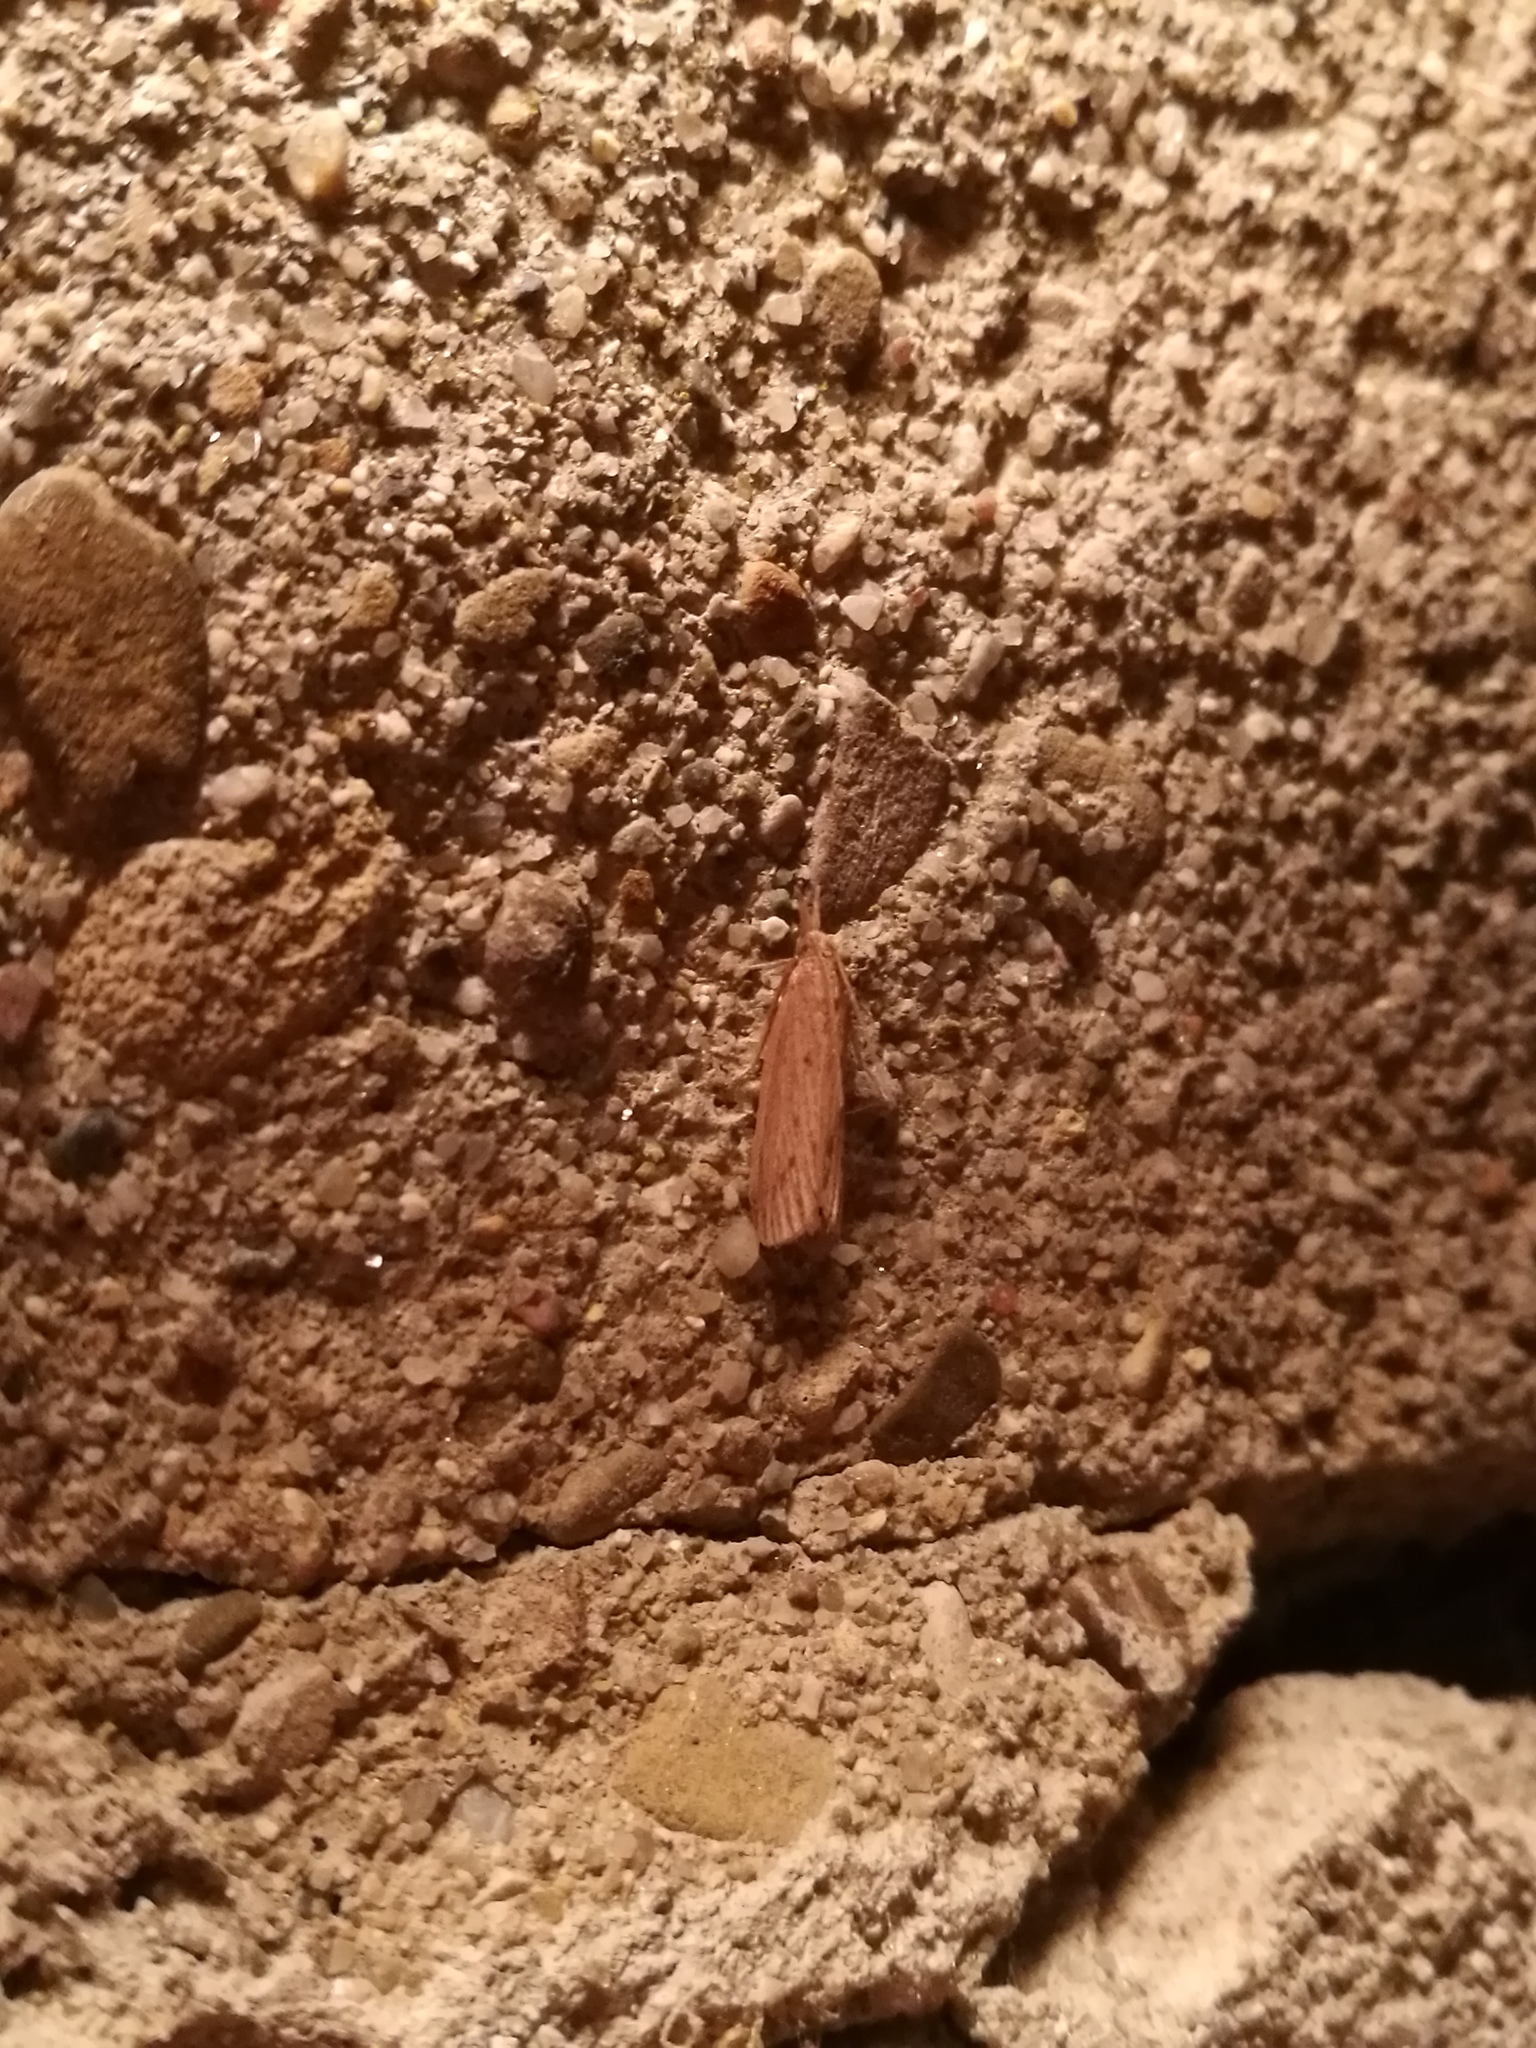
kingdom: Animalia
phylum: Arthropoda
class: Insecta
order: Lepidoptera
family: Pyralidae
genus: Ematheudes
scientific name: Ematheudes punctellus
